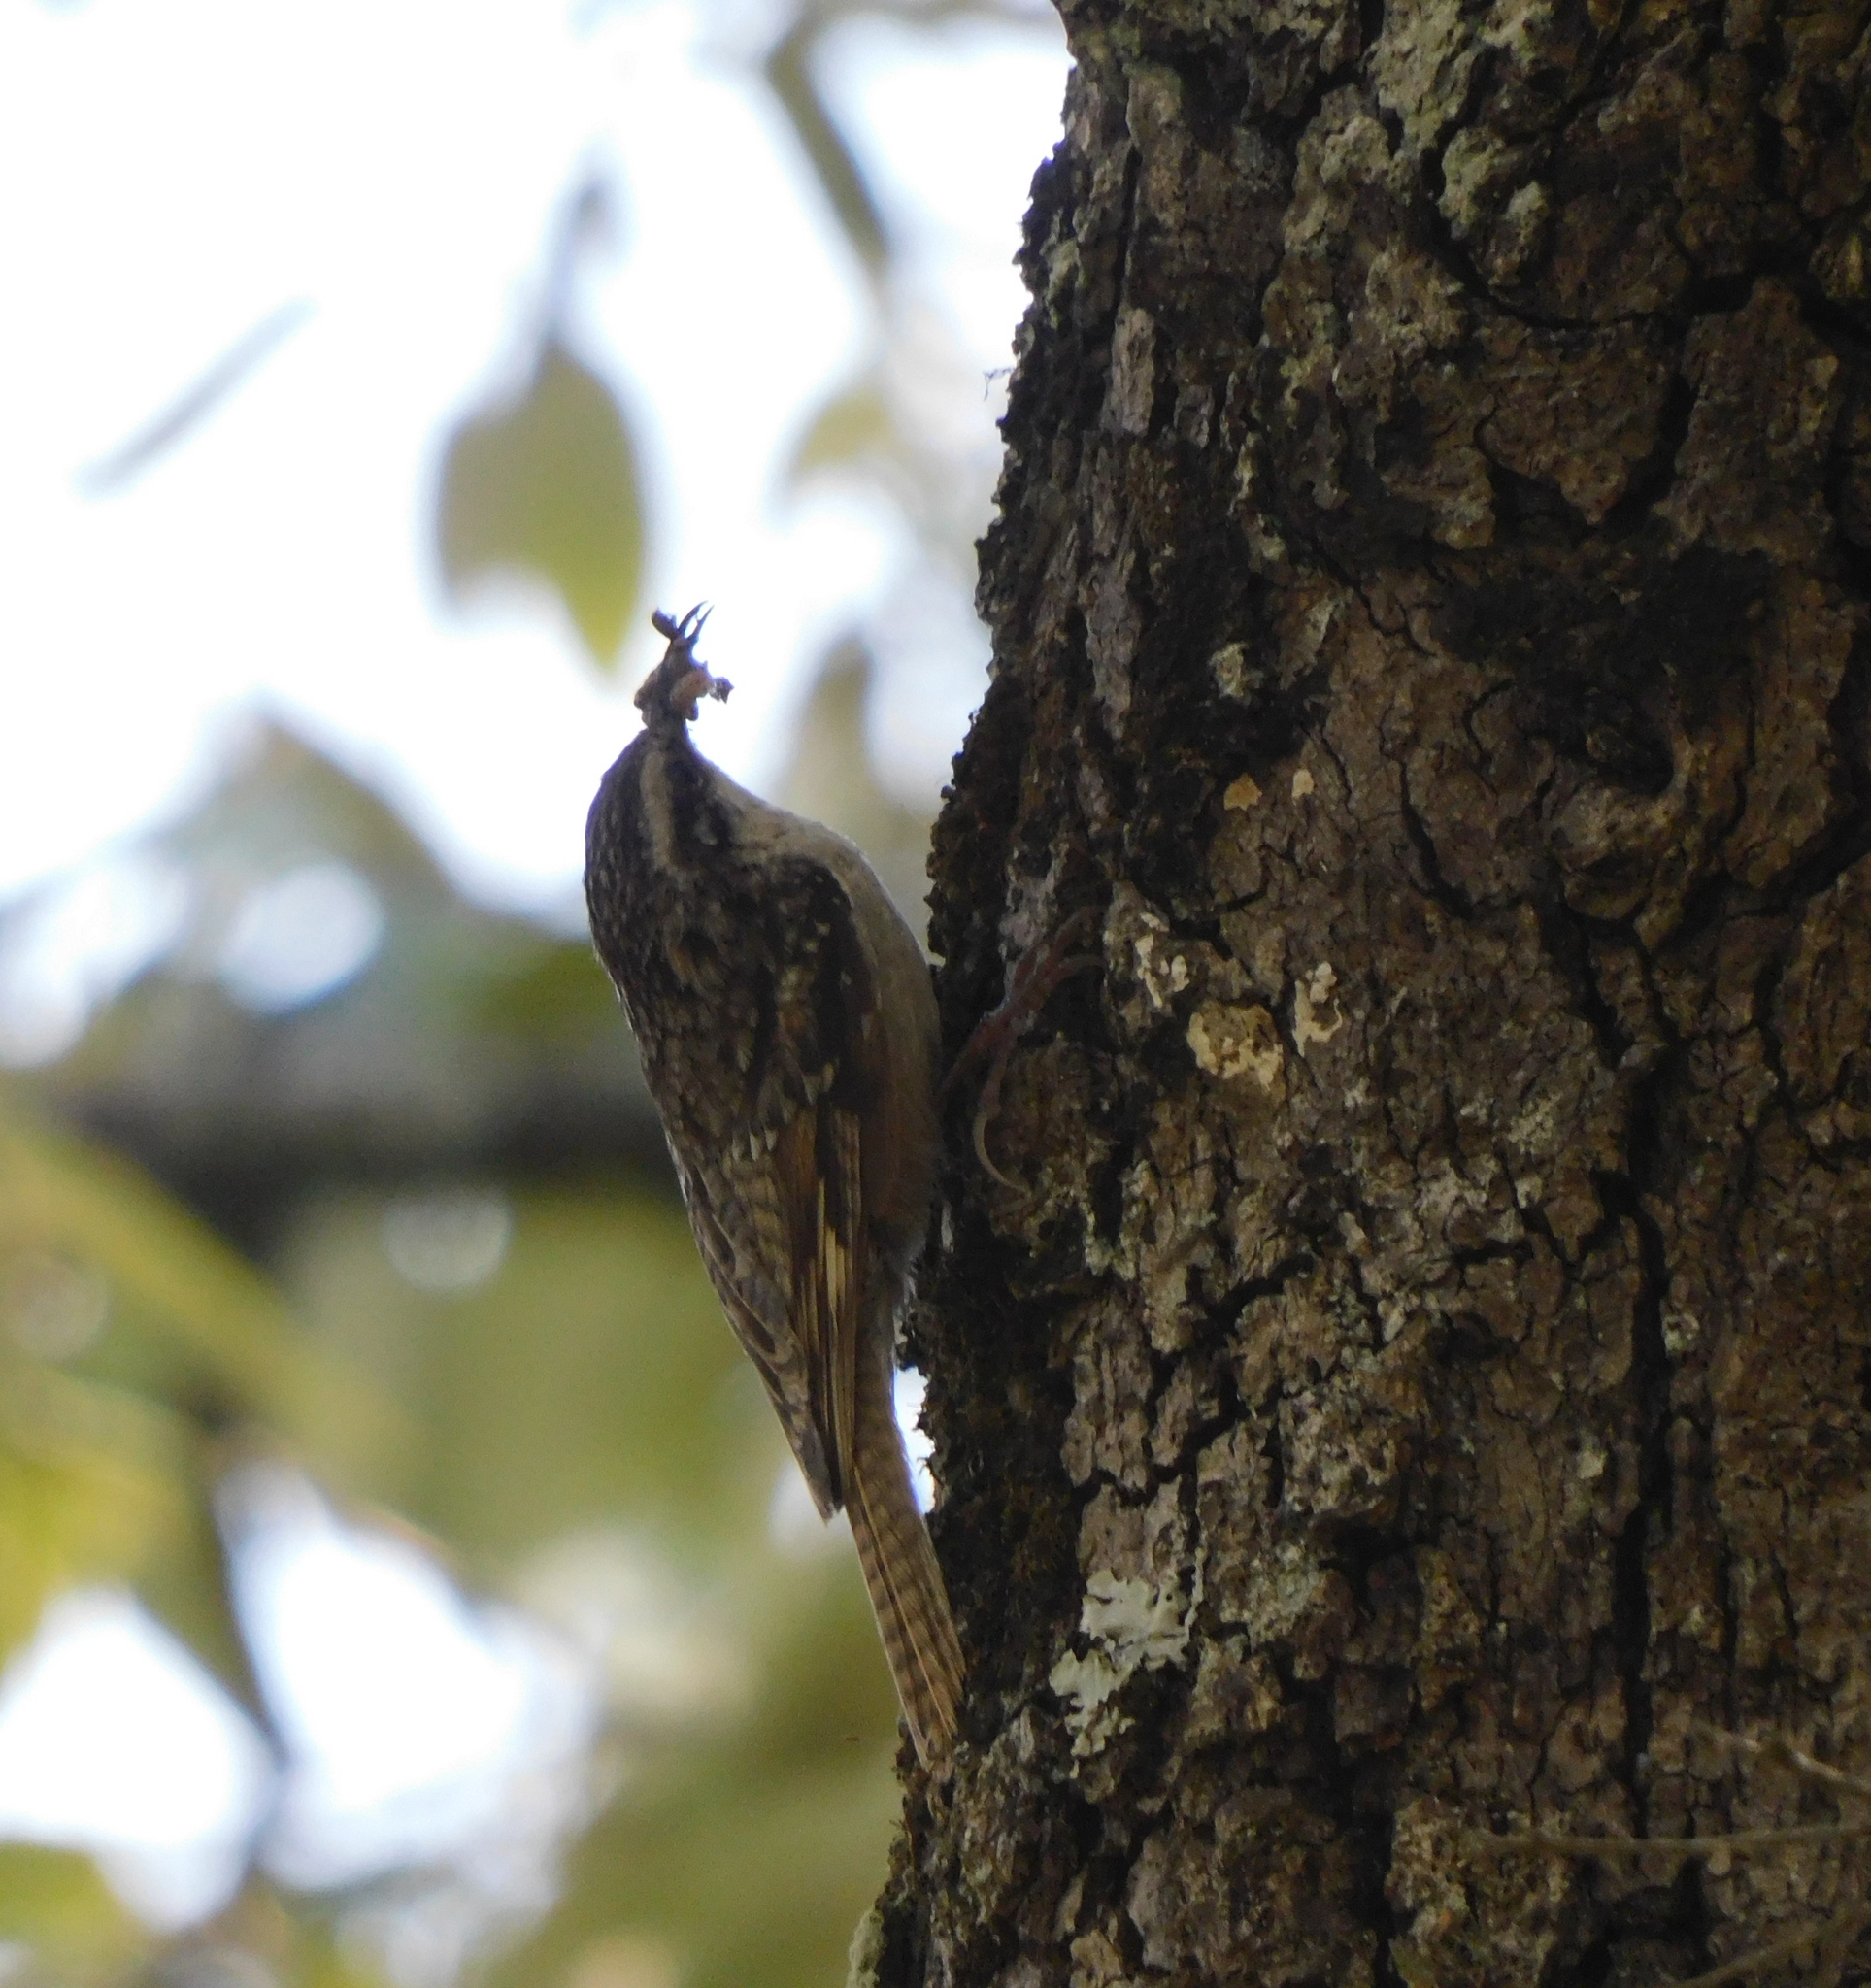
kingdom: Animalia
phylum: Chordata
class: Aves
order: Passeriformes
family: Certhiidae
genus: Certhia
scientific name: Certhia himalayana
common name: Bar-tailed treecreeper
